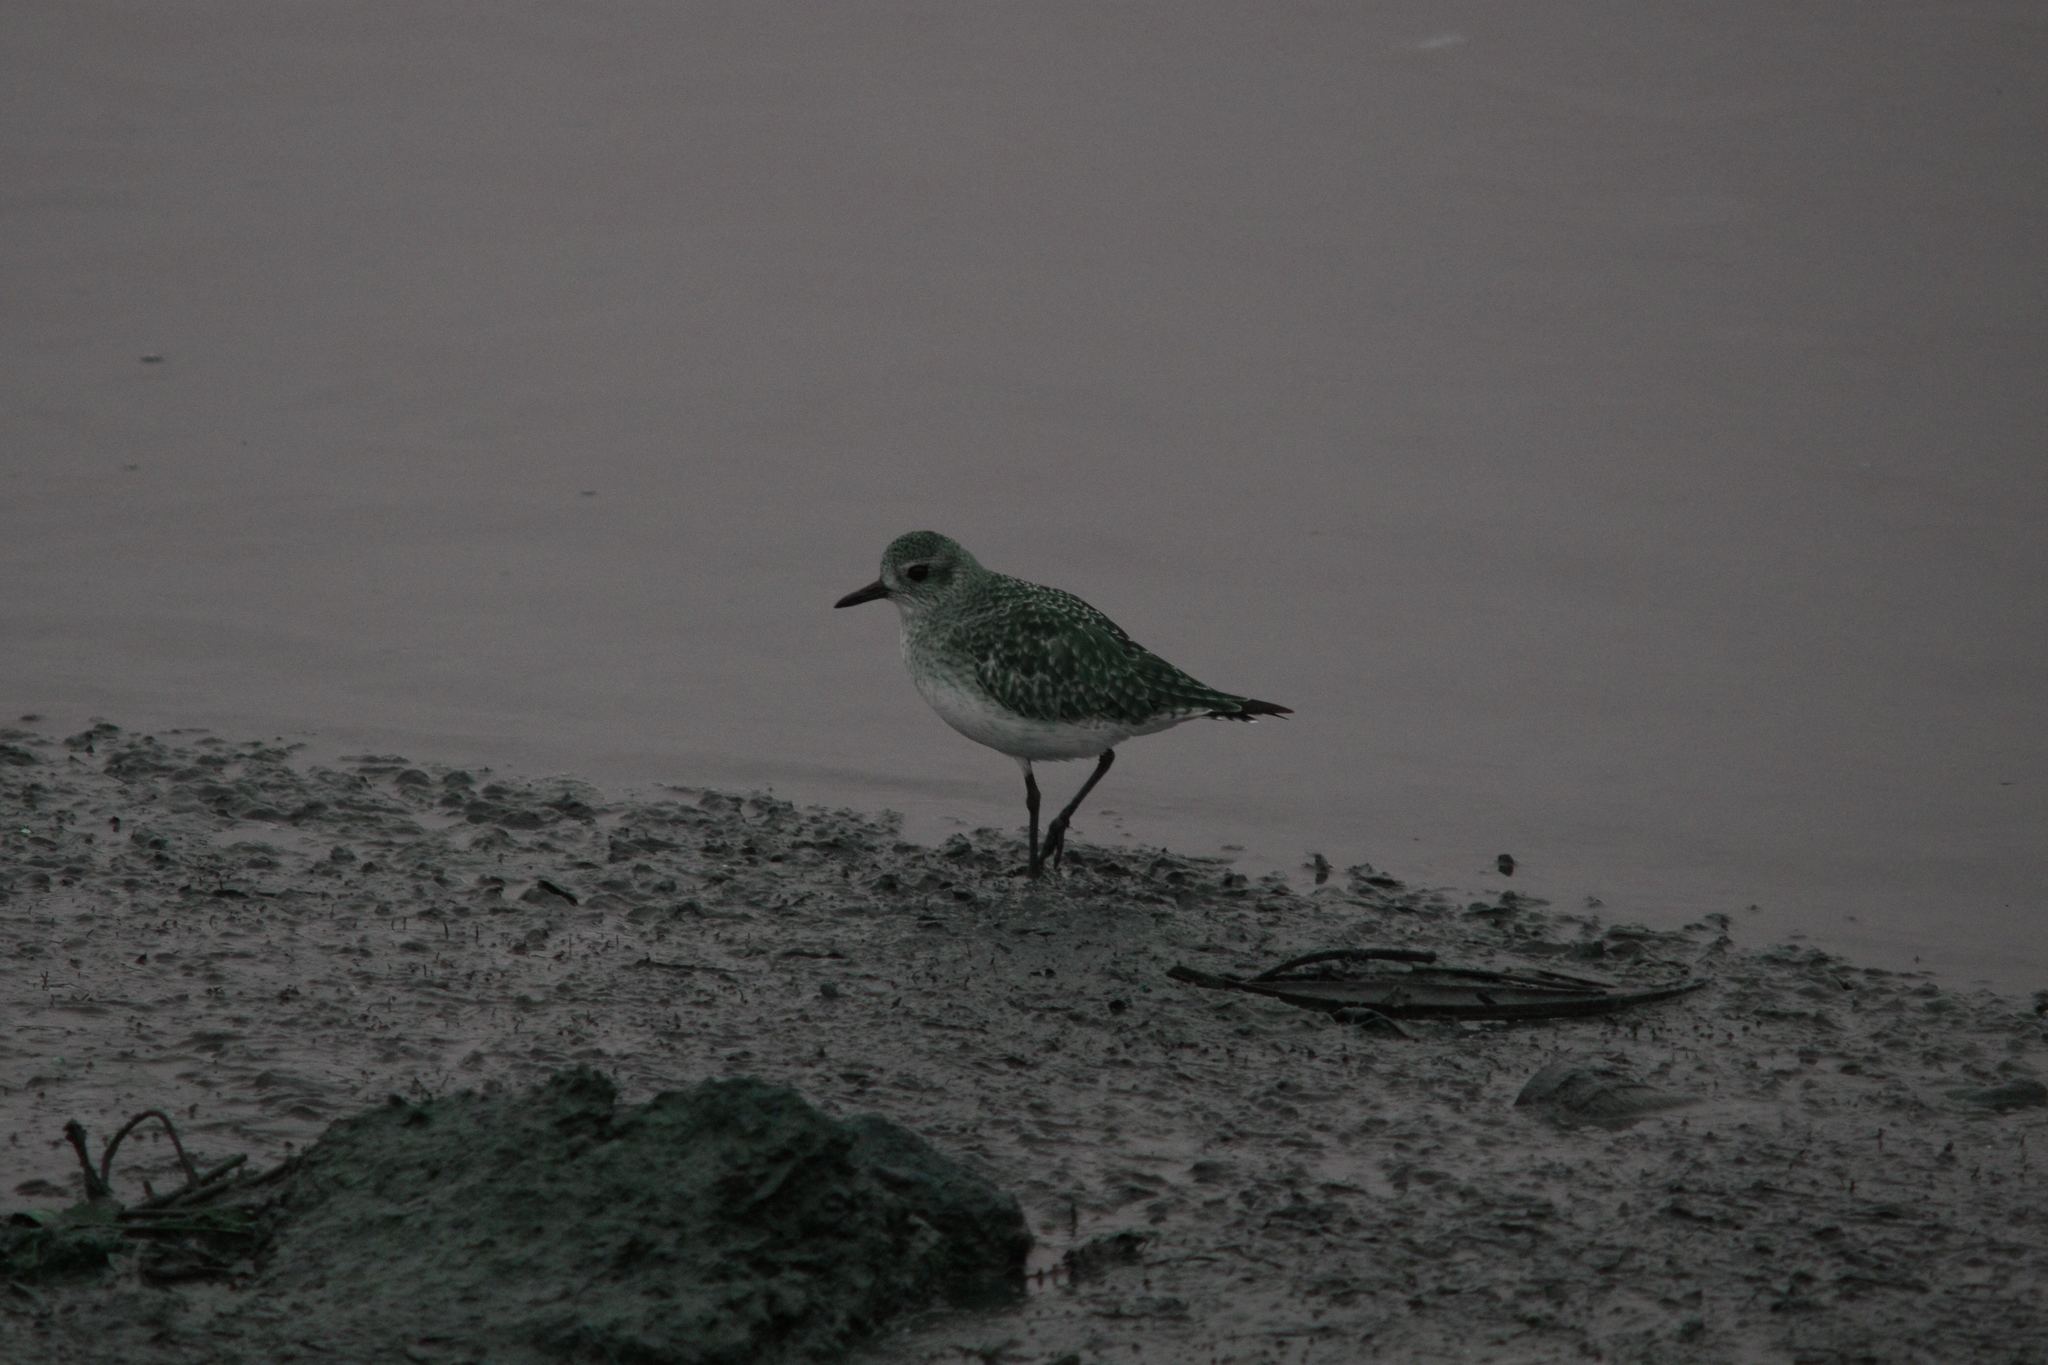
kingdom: Animalia
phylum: Chordata
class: Aves
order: Charadriiformes
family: Charadriidae
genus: Pluvialis
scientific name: Pluvialis squatarola
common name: Grey plover
